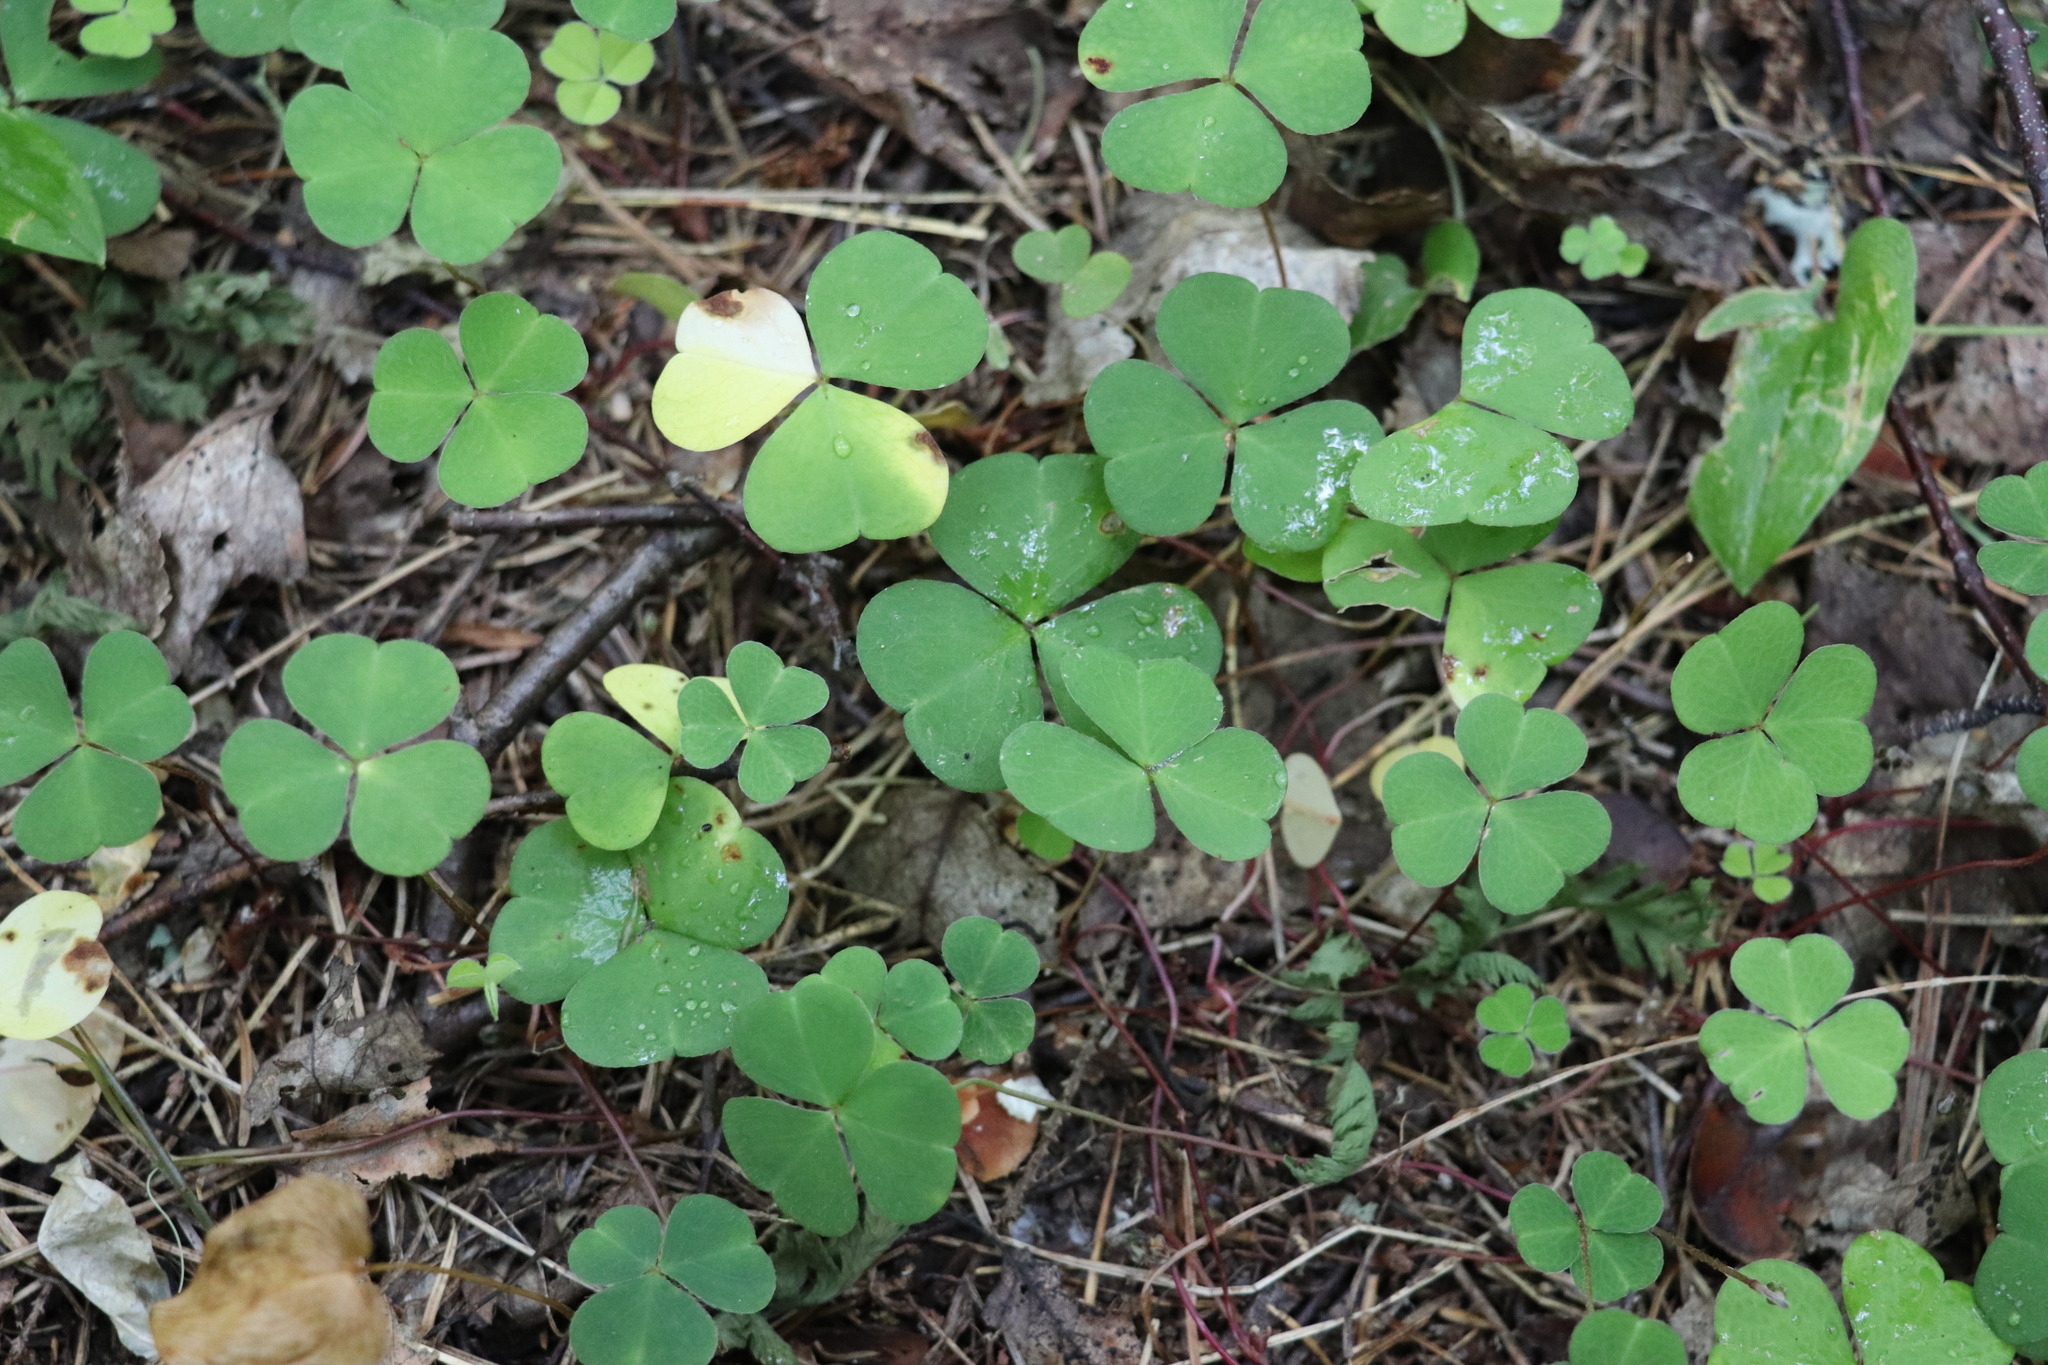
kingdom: Plantae
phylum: Tracheophyta
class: Magnoliopsida
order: Oxalidales
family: Oxalidaceae
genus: Oxalis
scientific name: Oxalis acetosella
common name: Wood-sorrel
